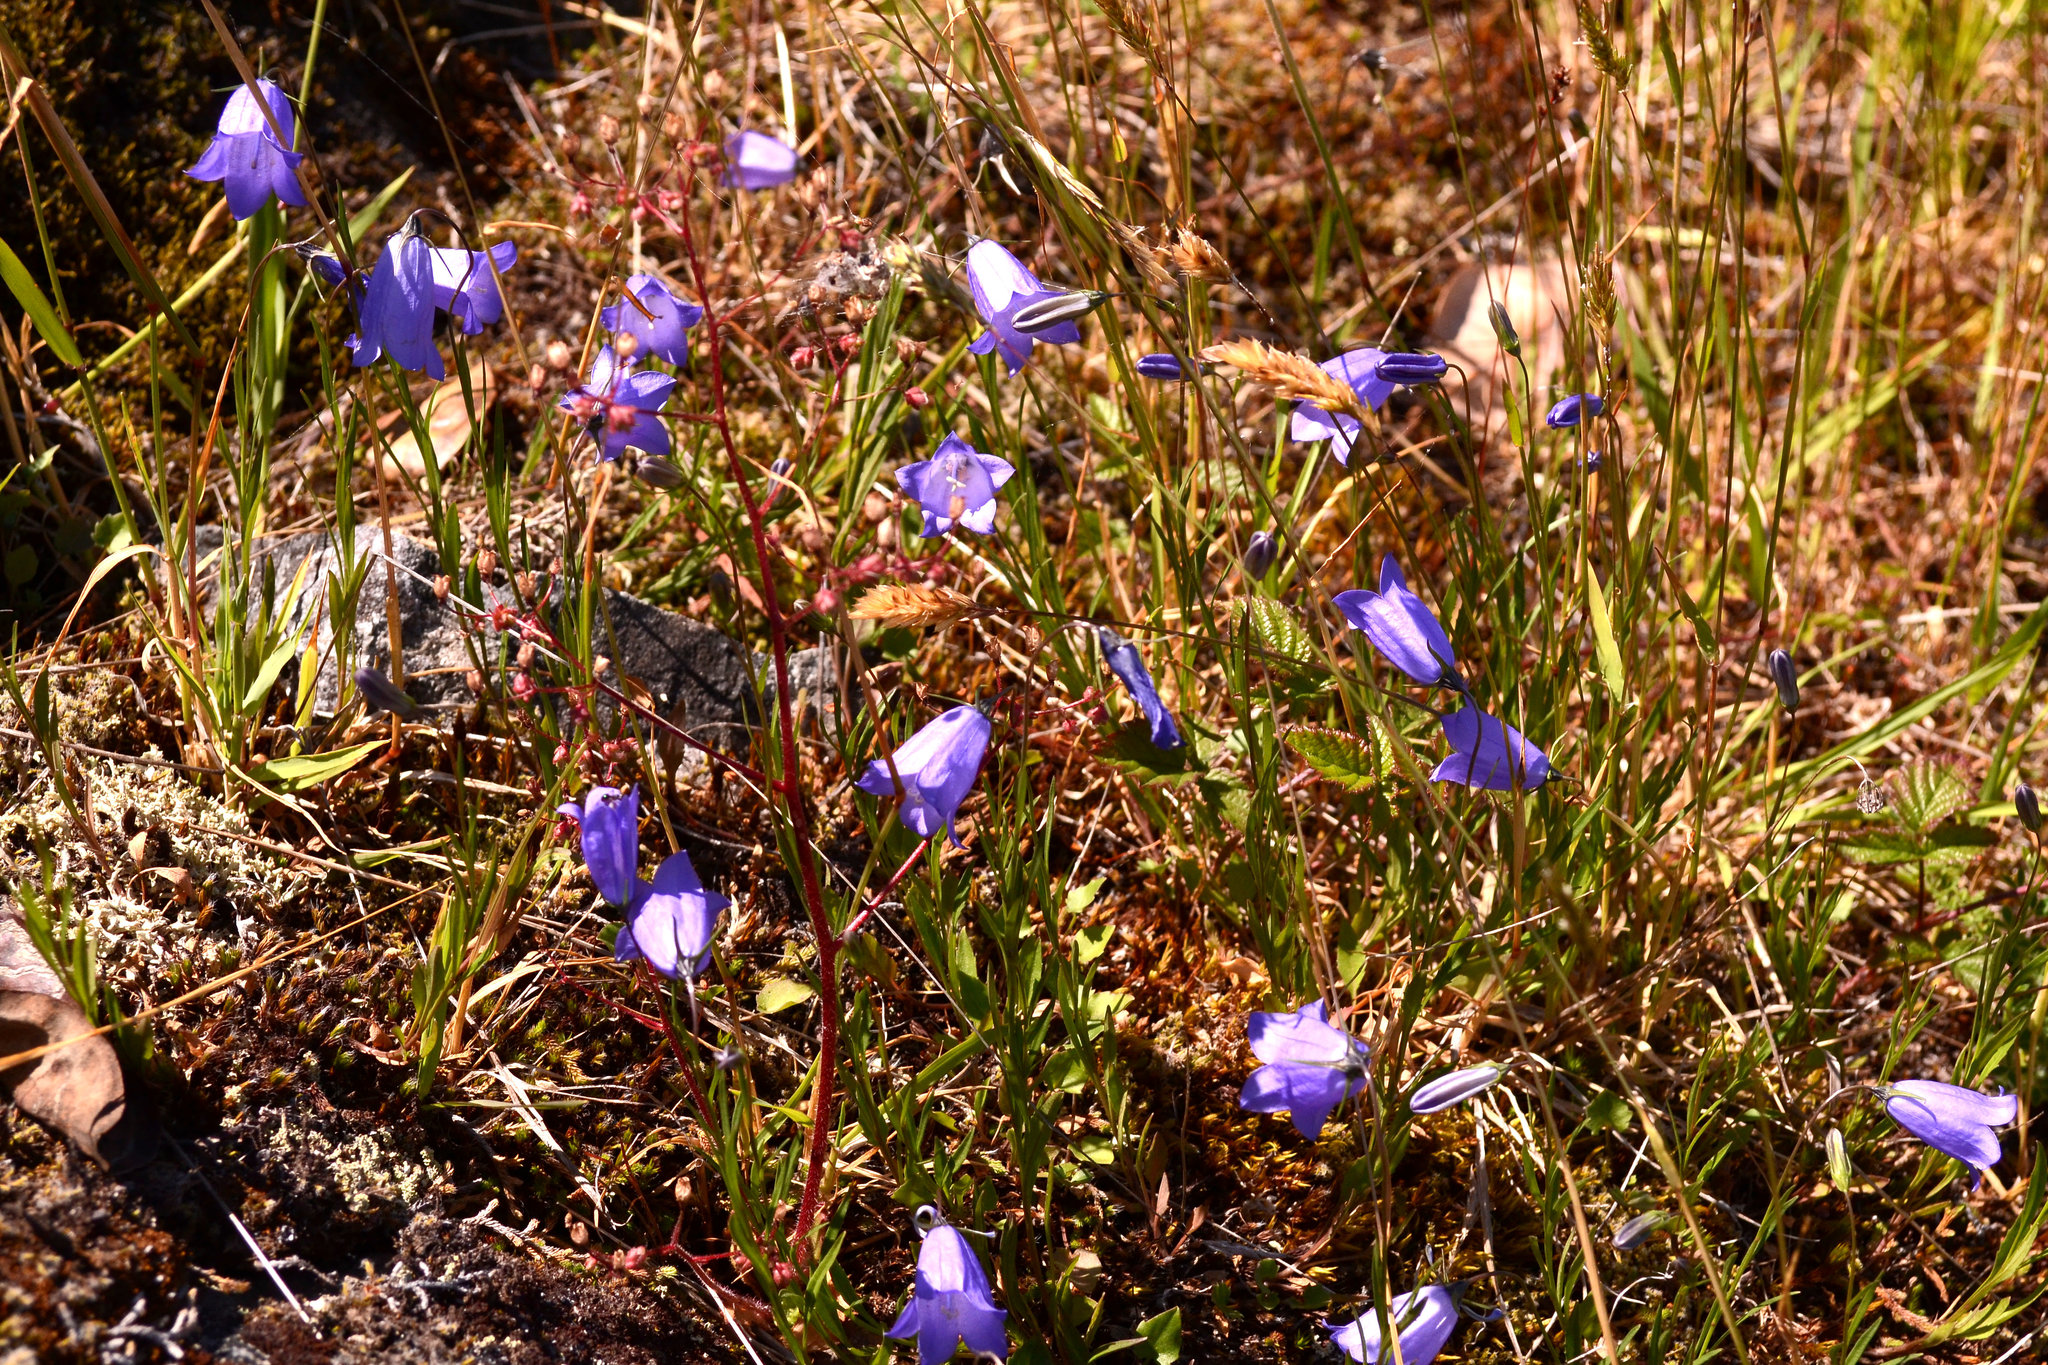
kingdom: Plantae
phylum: Tracheophyta
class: Magnoliopsida
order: Asterales
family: Campanulaceae
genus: Campanula
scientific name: Campanula alaskana
